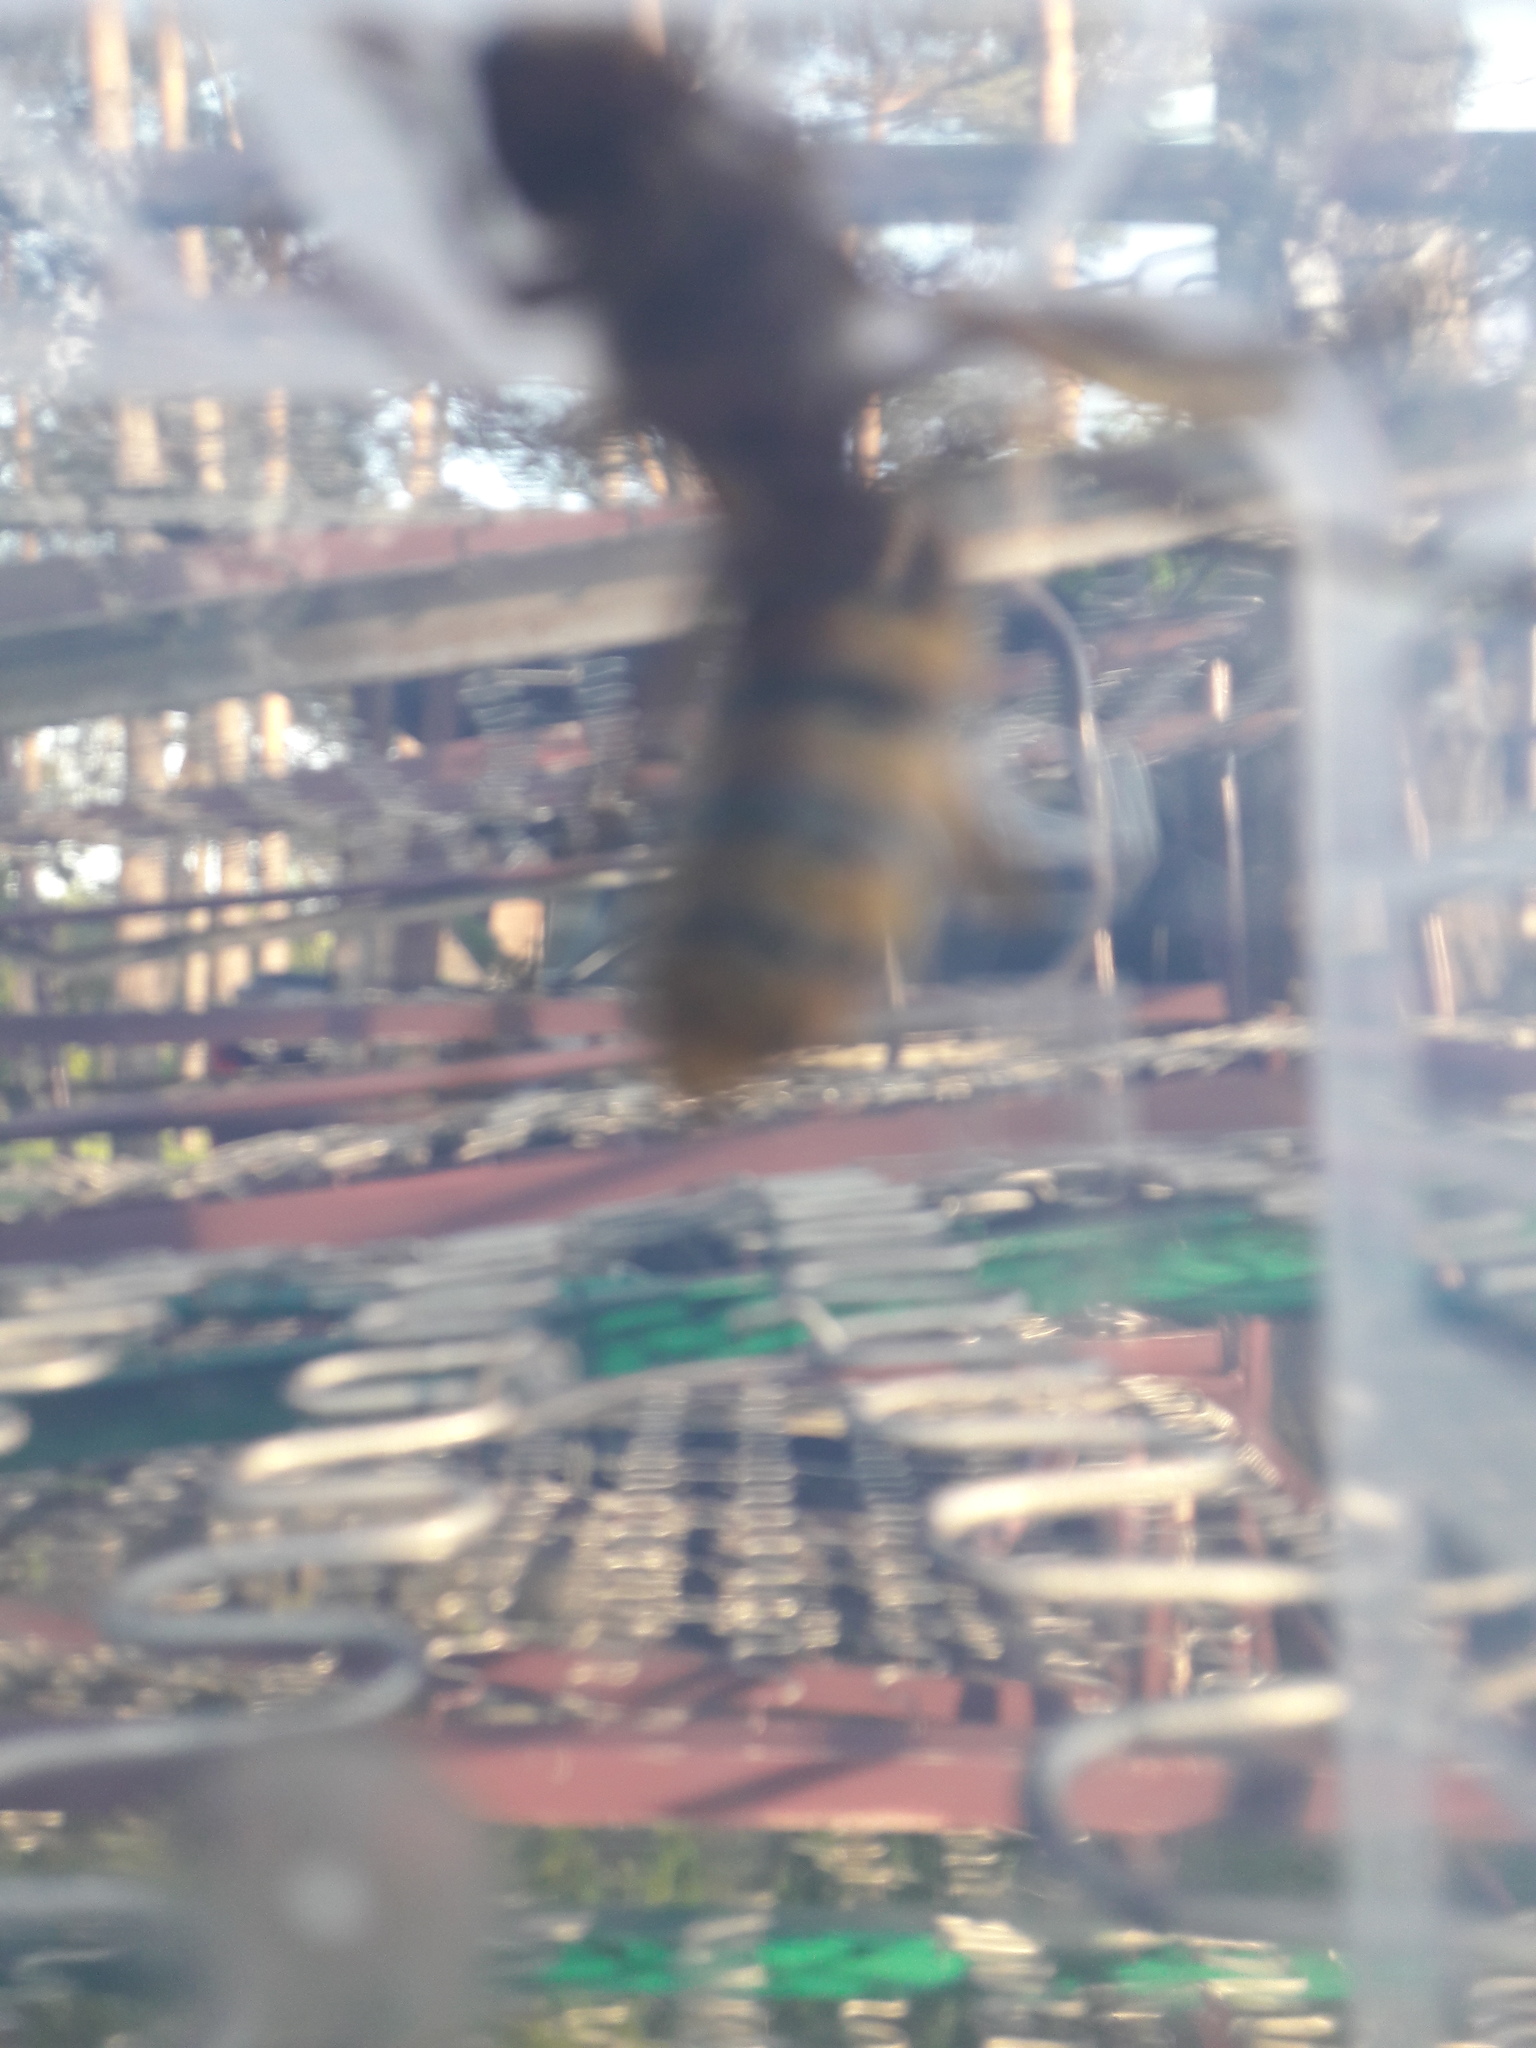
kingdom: Animalia
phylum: Arthropoda
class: Insecta
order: Hymenoptera
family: Vespidae
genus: Vespa
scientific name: Vespa crabro
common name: Hornet
